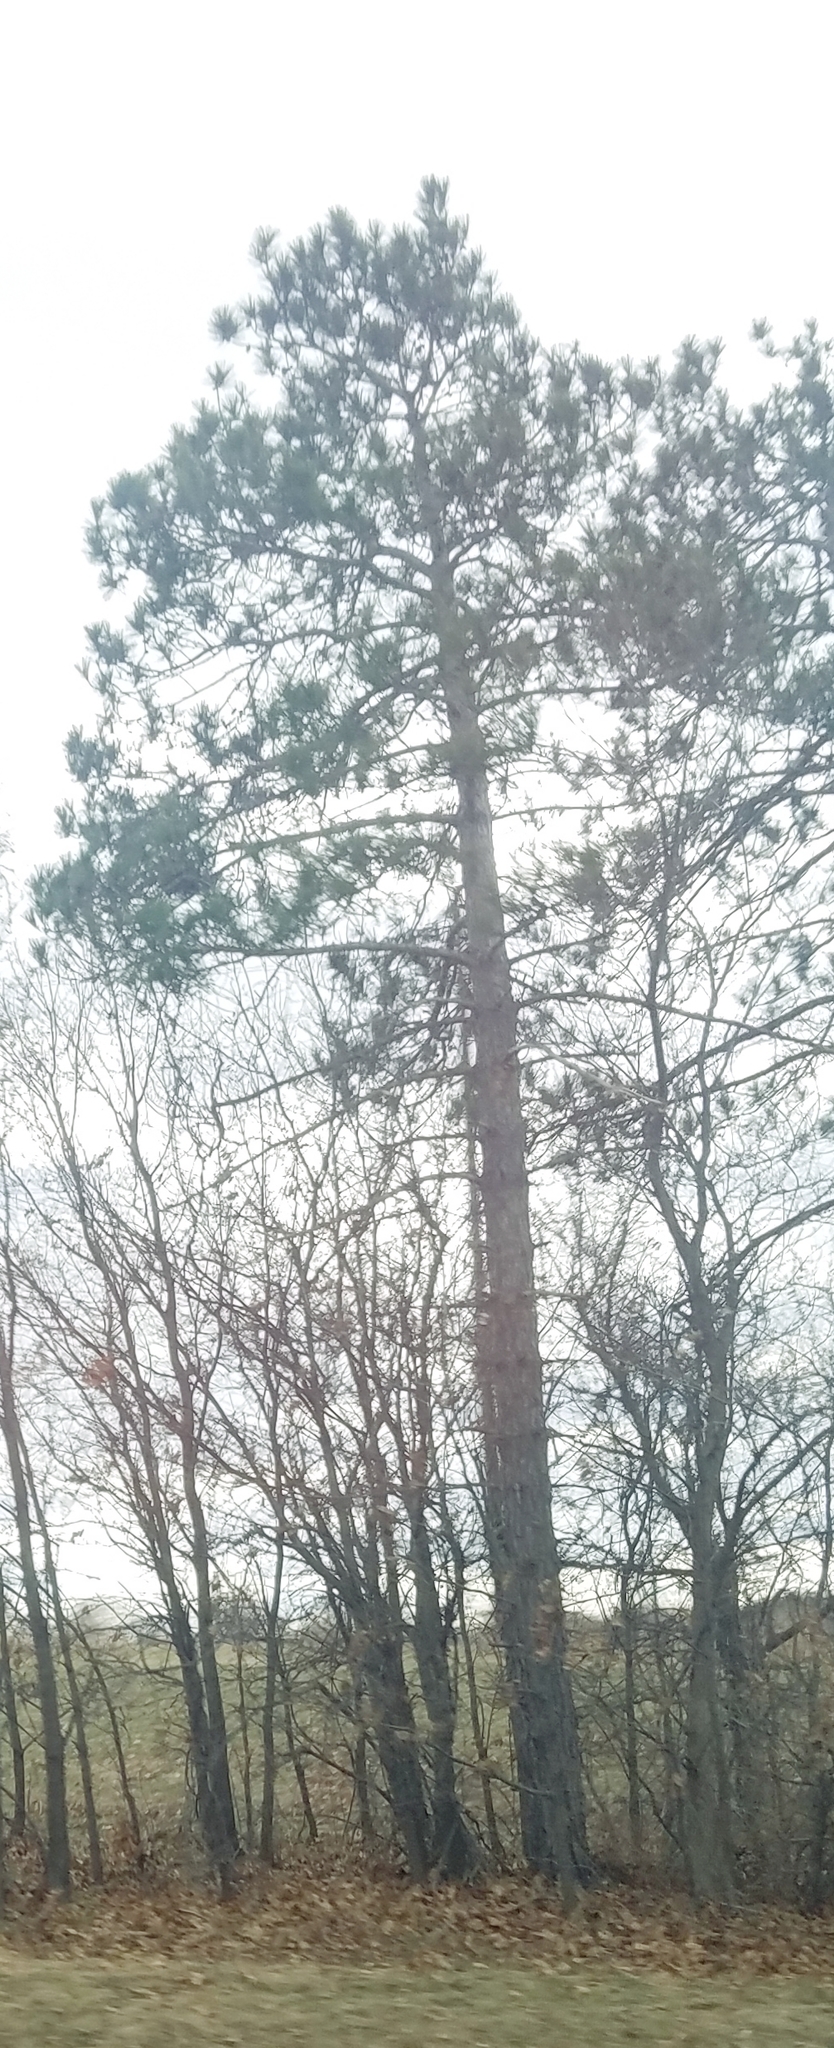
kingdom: Plantae
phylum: Tracheophyta
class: Pinopsida
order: Pinales
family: Pinaceae
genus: Pinus
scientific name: Pinus resinosa
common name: Norway pine
